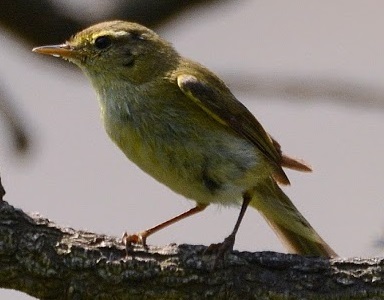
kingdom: Animalia
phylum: Chordata
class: Aves
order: Passeriformes
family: Phylloscopidae
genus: Phylloscopus
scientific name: Phylloscopus trochilus
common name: Willow warbler
